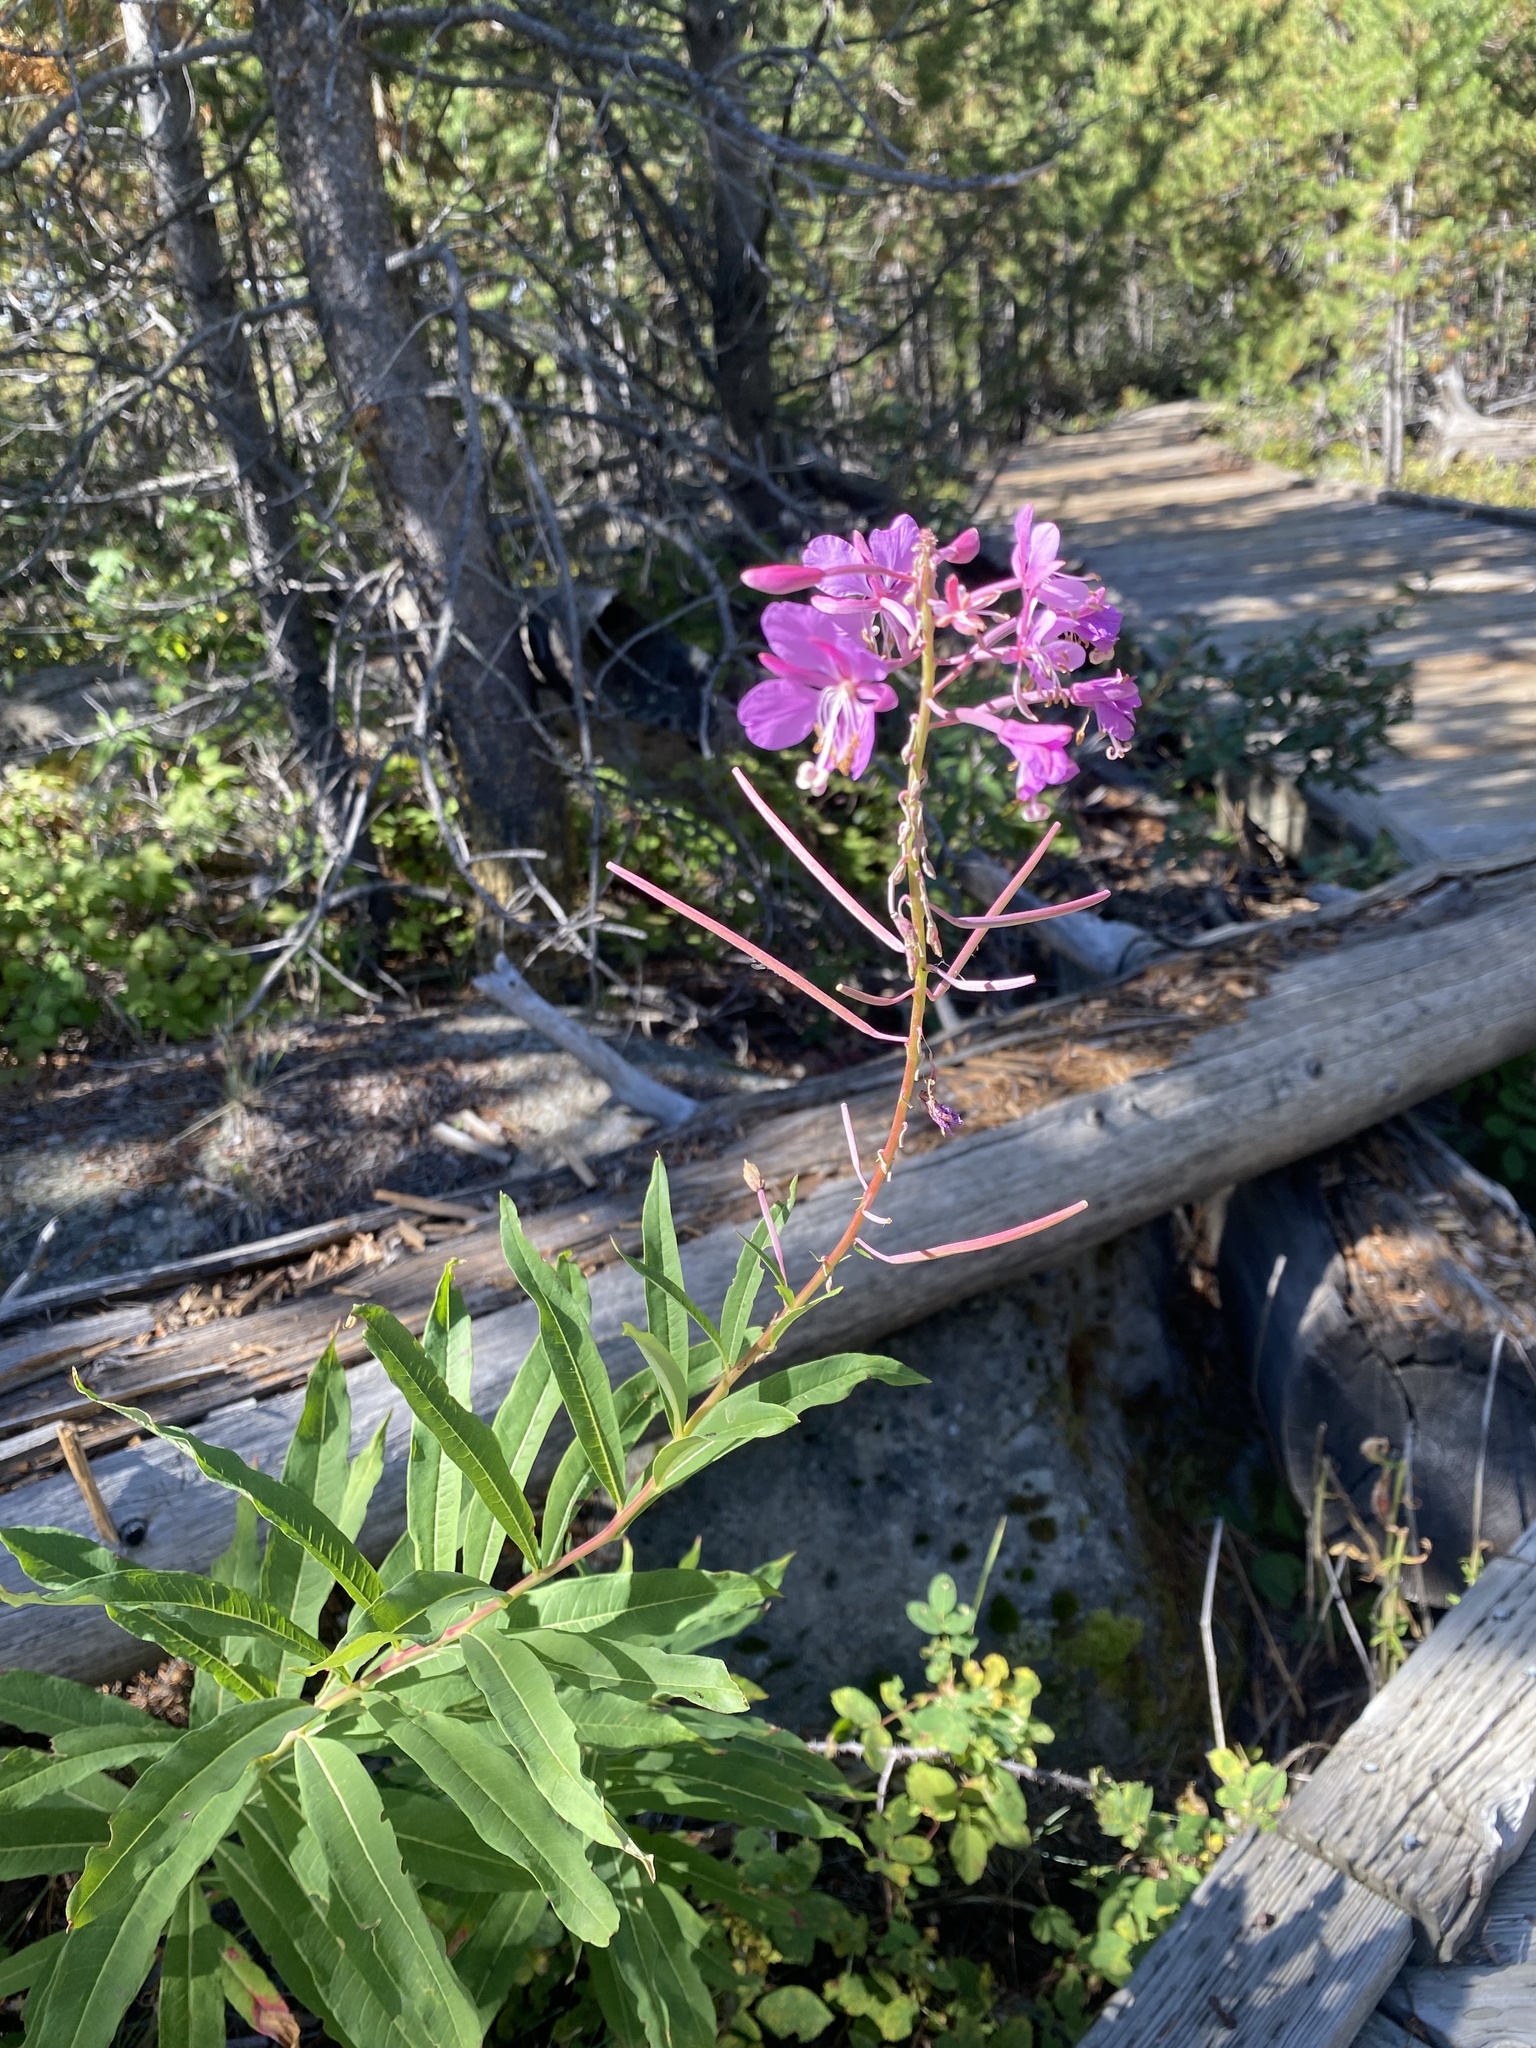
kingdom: Plantae
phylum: Tracheophyta
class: Magnoliopsida
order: Myrtales
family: Onagraceae
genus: Chamaenerion
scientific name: Chamaenerion angustifolium
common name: Fireweed
